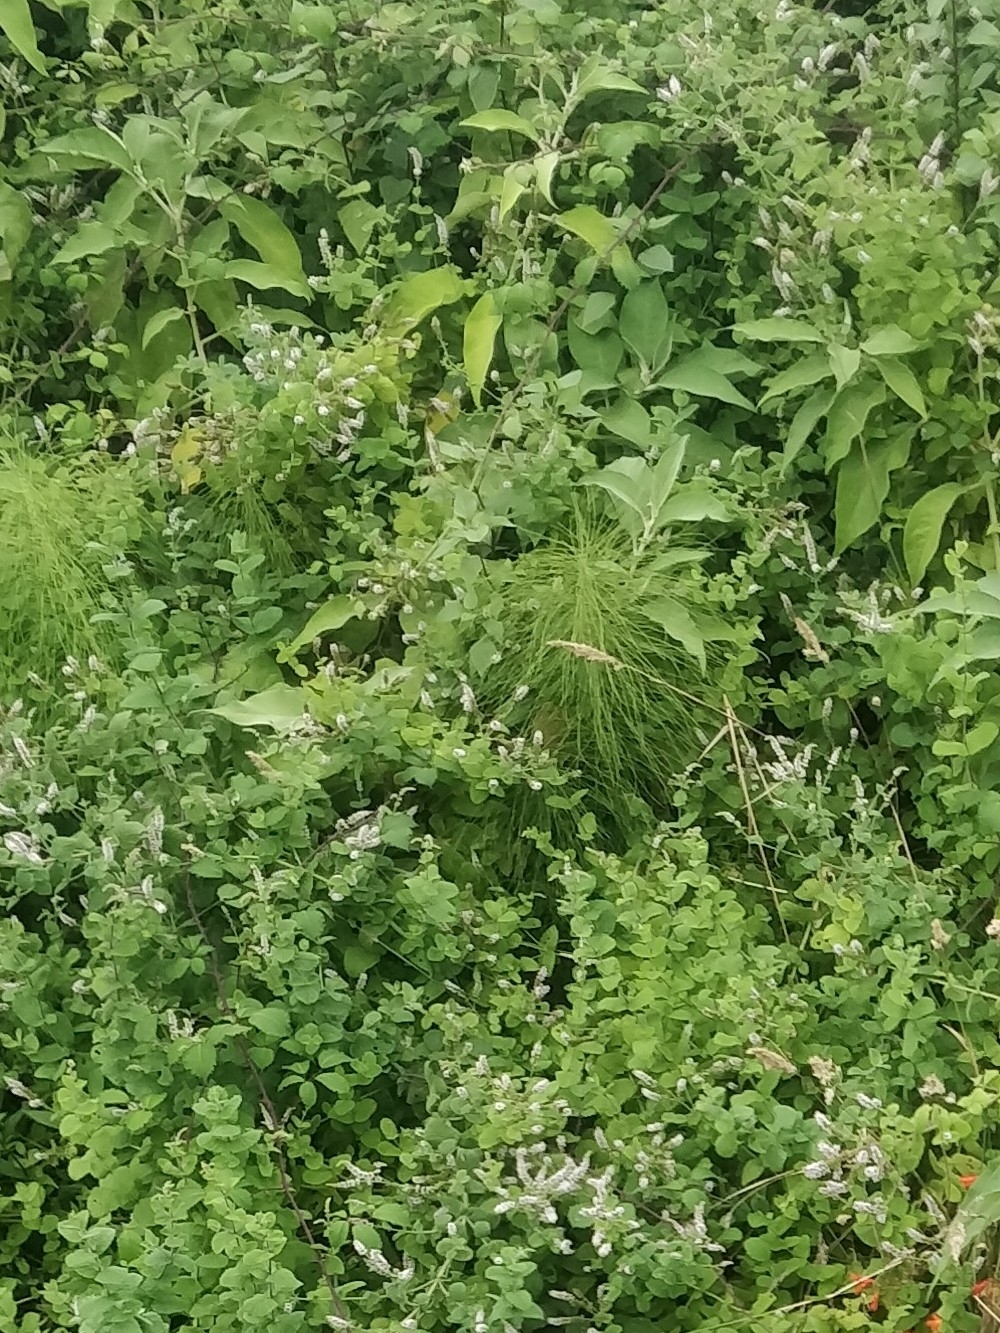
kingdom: Plantae
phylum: Tracheophyta
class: Polypodiopsida
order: Equisetales
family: Equisetaceae
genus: Equisetum
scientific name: Equisetum telmateia
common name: Great horsetail
